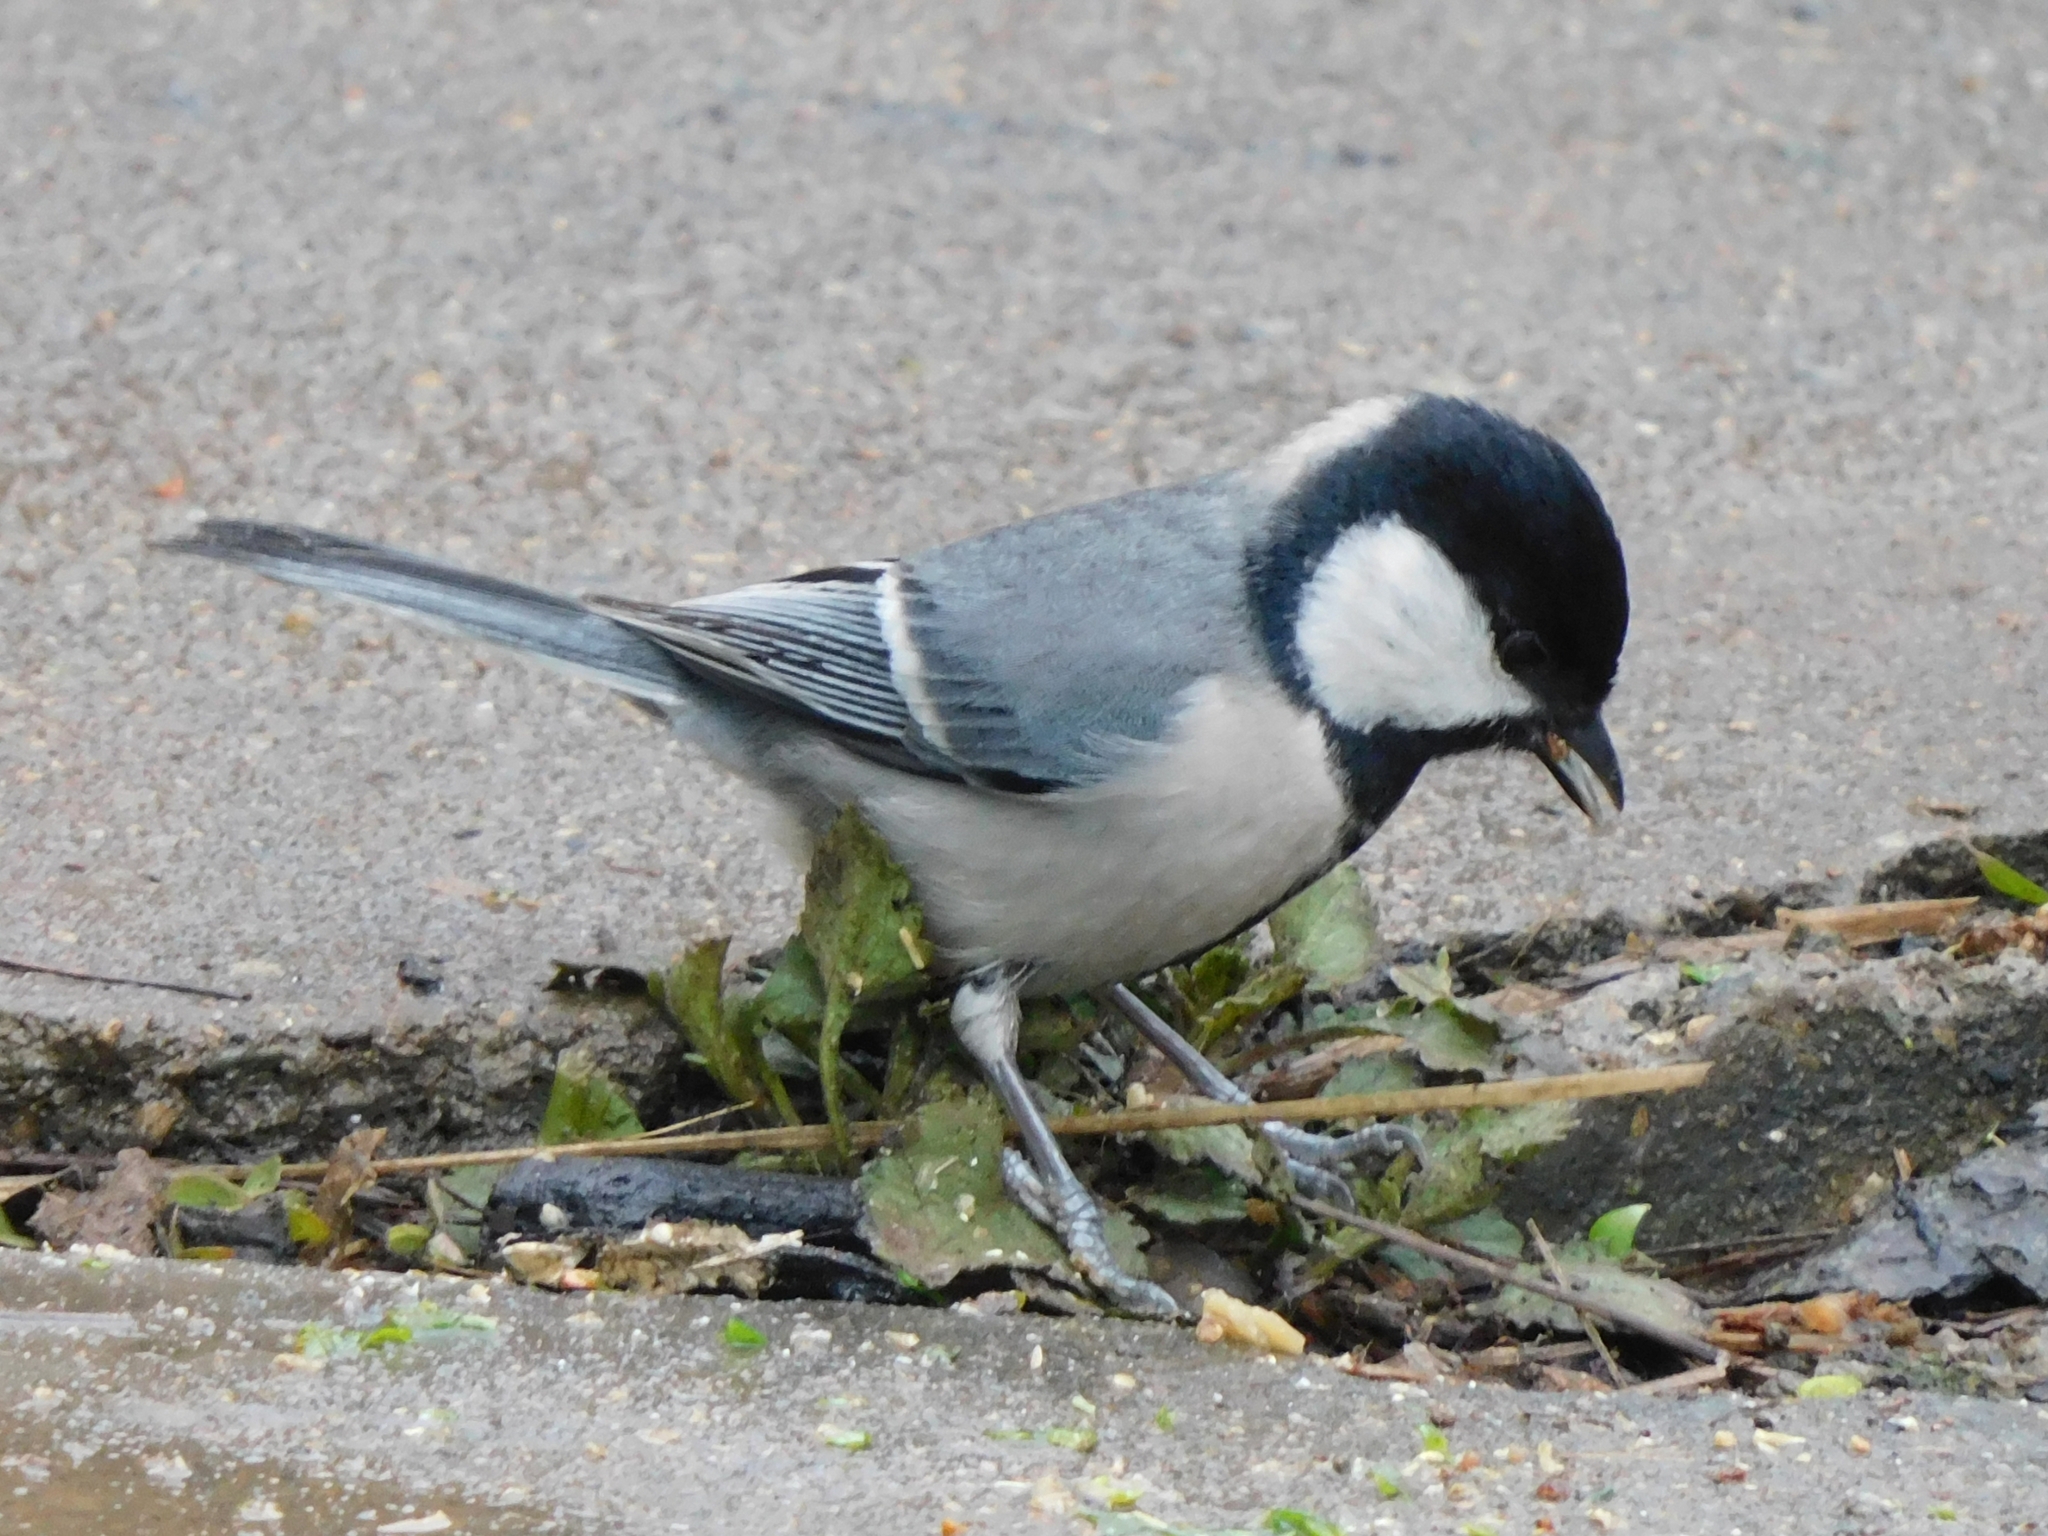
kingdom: Animalia
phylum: Chordata
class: Aves
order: Passeriformes
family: Paridae
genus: Parus
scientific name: Parus cinereus
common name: Cinereous tit
